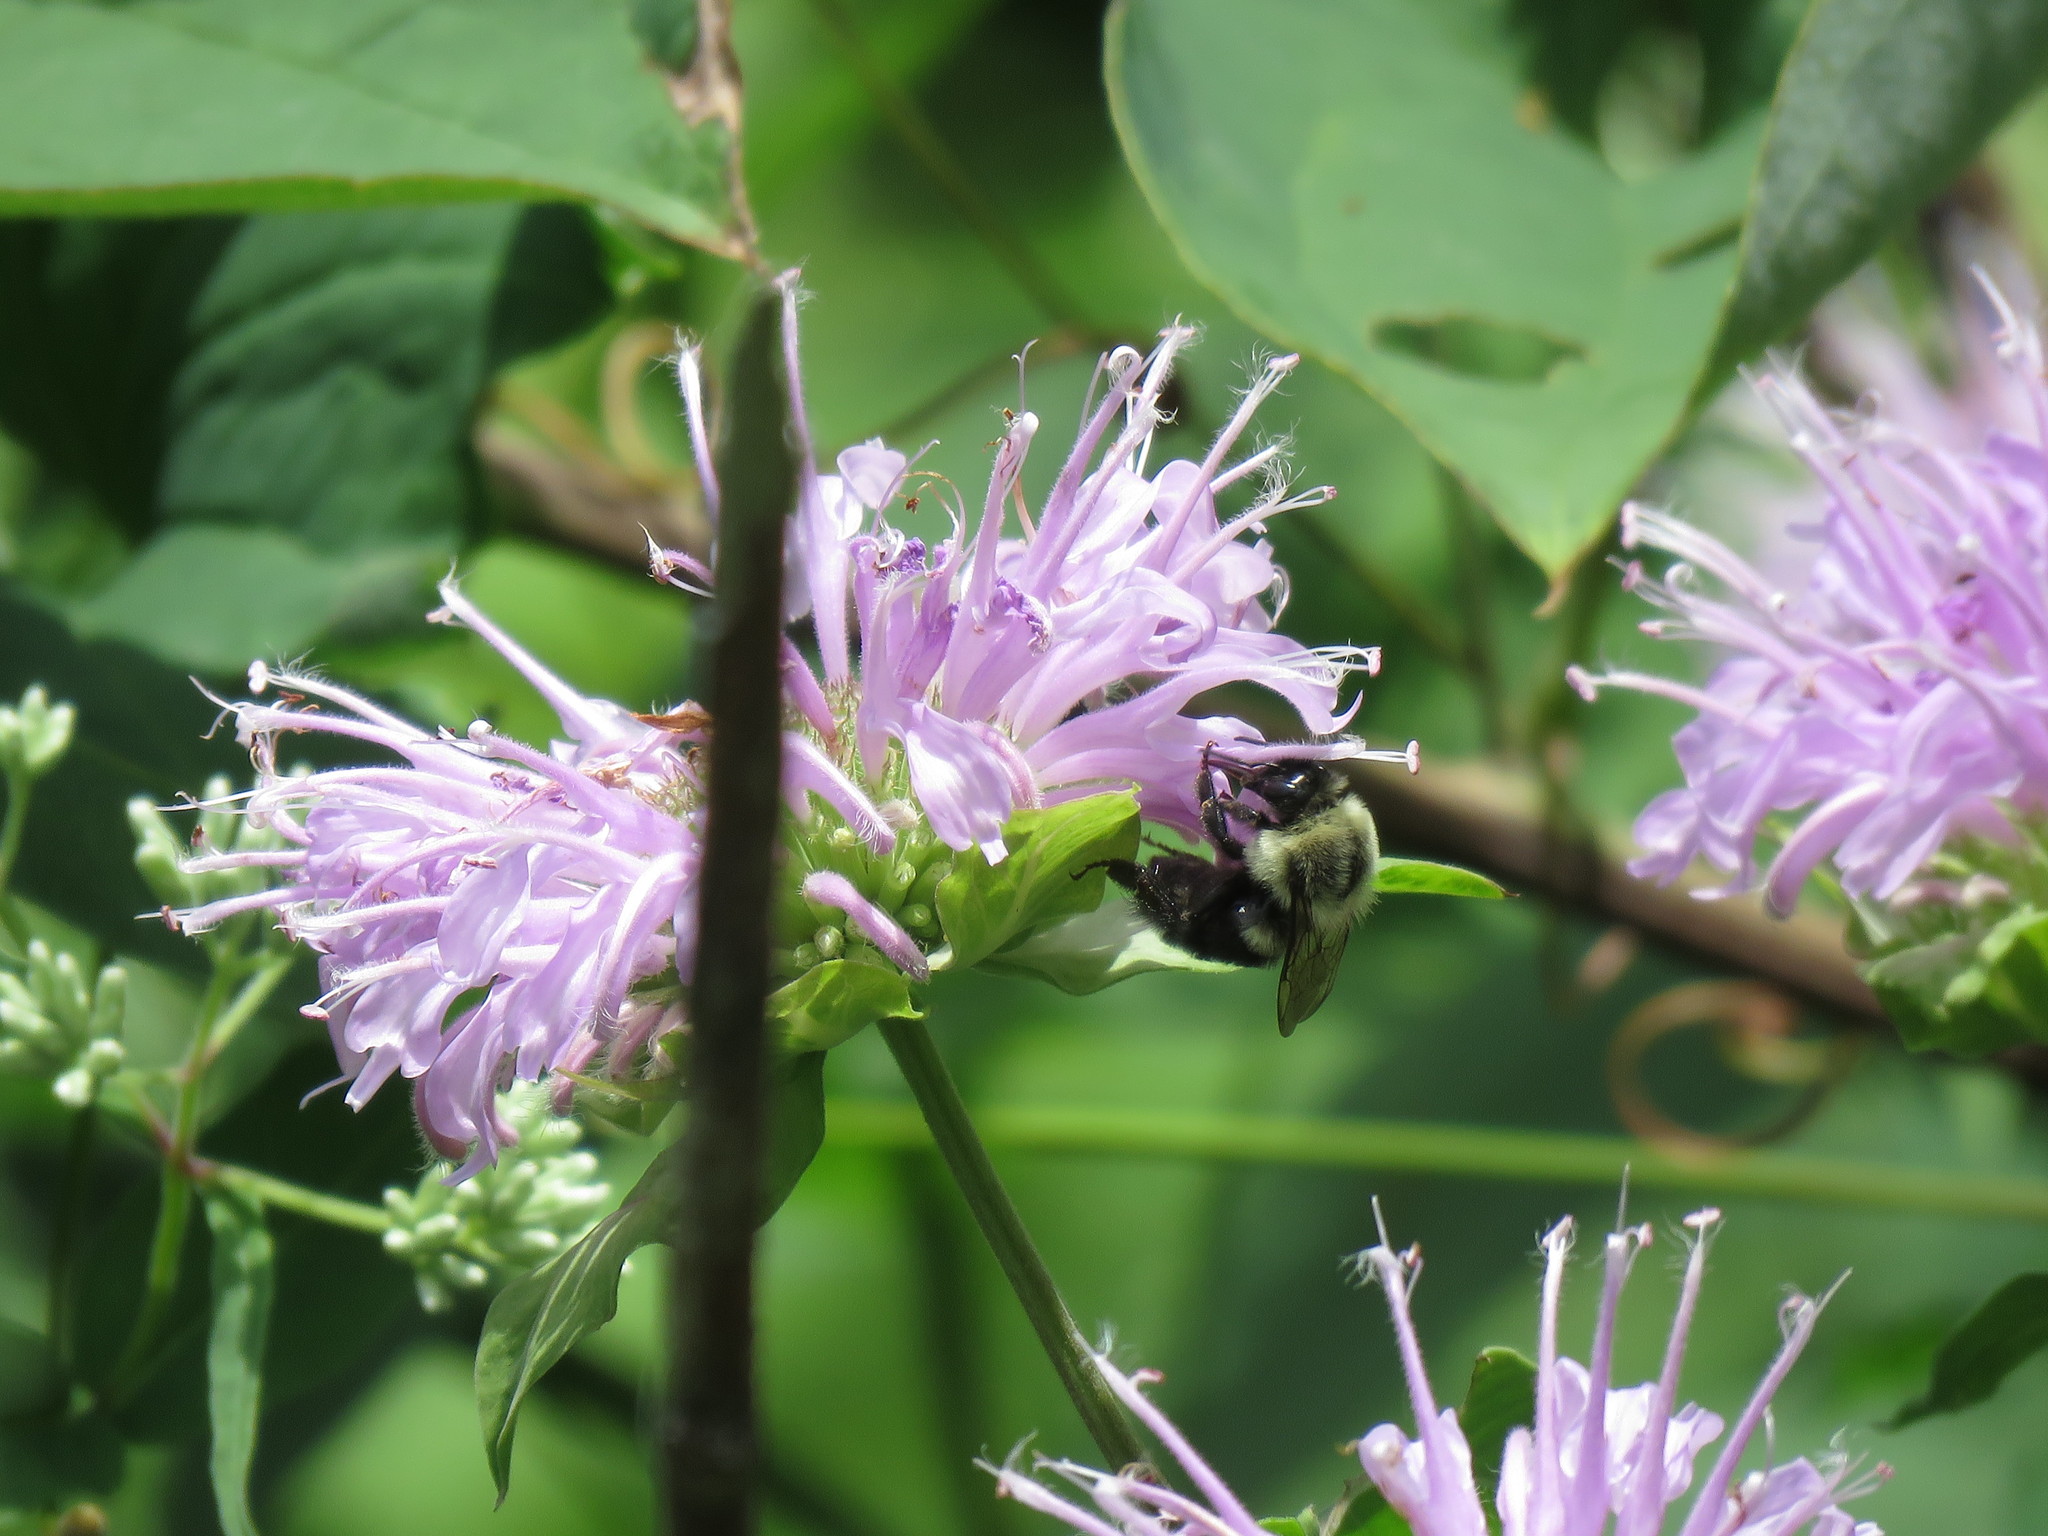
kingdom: Animalia
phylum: Arthropoda
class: Insecta
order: Hymenoptera
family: Apidae
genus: Bombus
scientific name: Bombus impatiens
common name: Common eastern bumble bee
